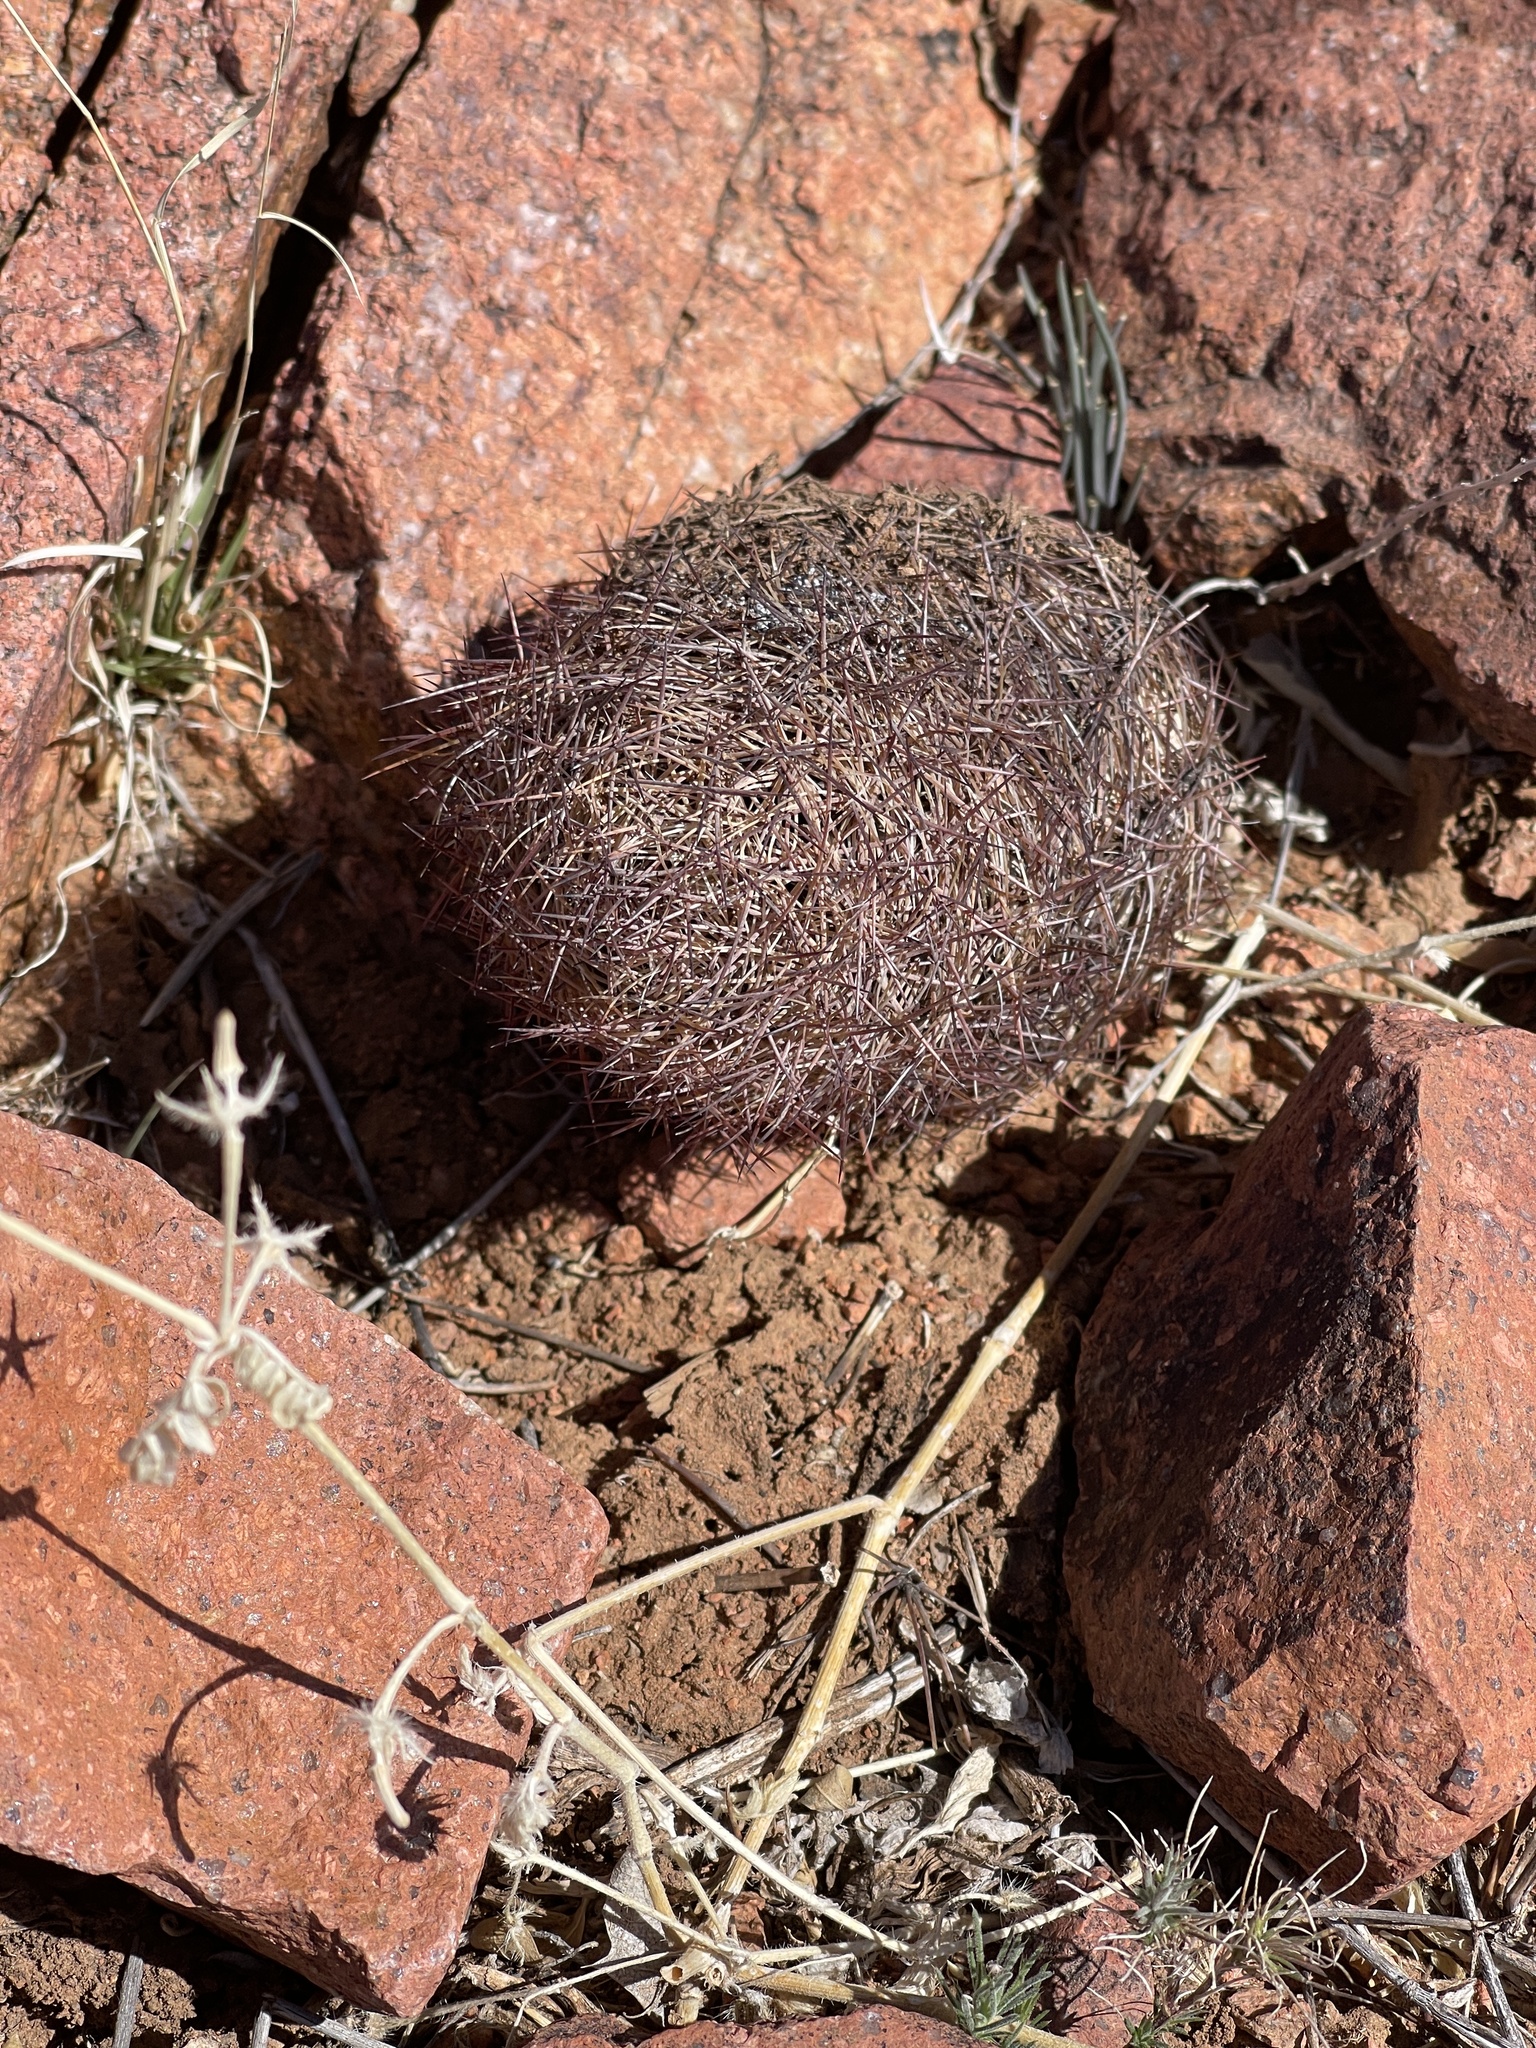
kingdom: Plantae
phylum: Tracheophyta
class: Magnoliopsida
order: Caryophyllales
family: Cactaceae
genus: Sclerocactus
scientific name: Sclerocactus intertextus
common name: White fish-hook cactus
